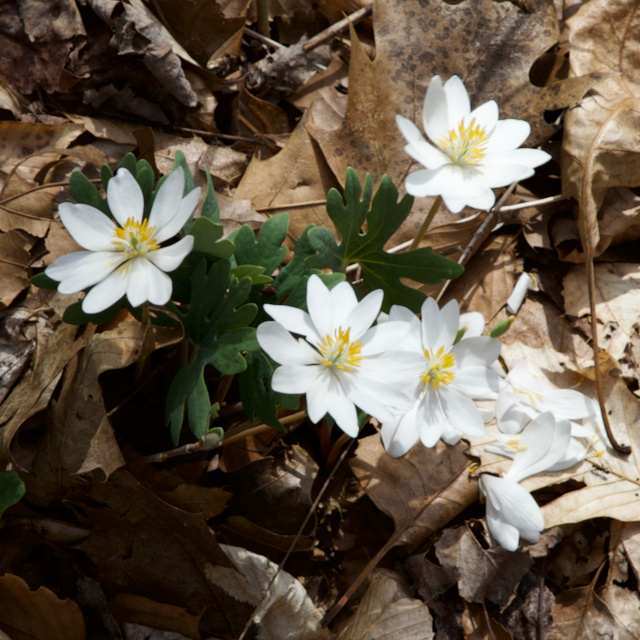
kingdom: Plantae
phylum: Tracheophyta
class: Magnoliopsida
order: Ranunculales
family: Papaveraceae
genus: Sanguinaria
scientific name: Sanguinaria canadensis
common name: Bloodroot
